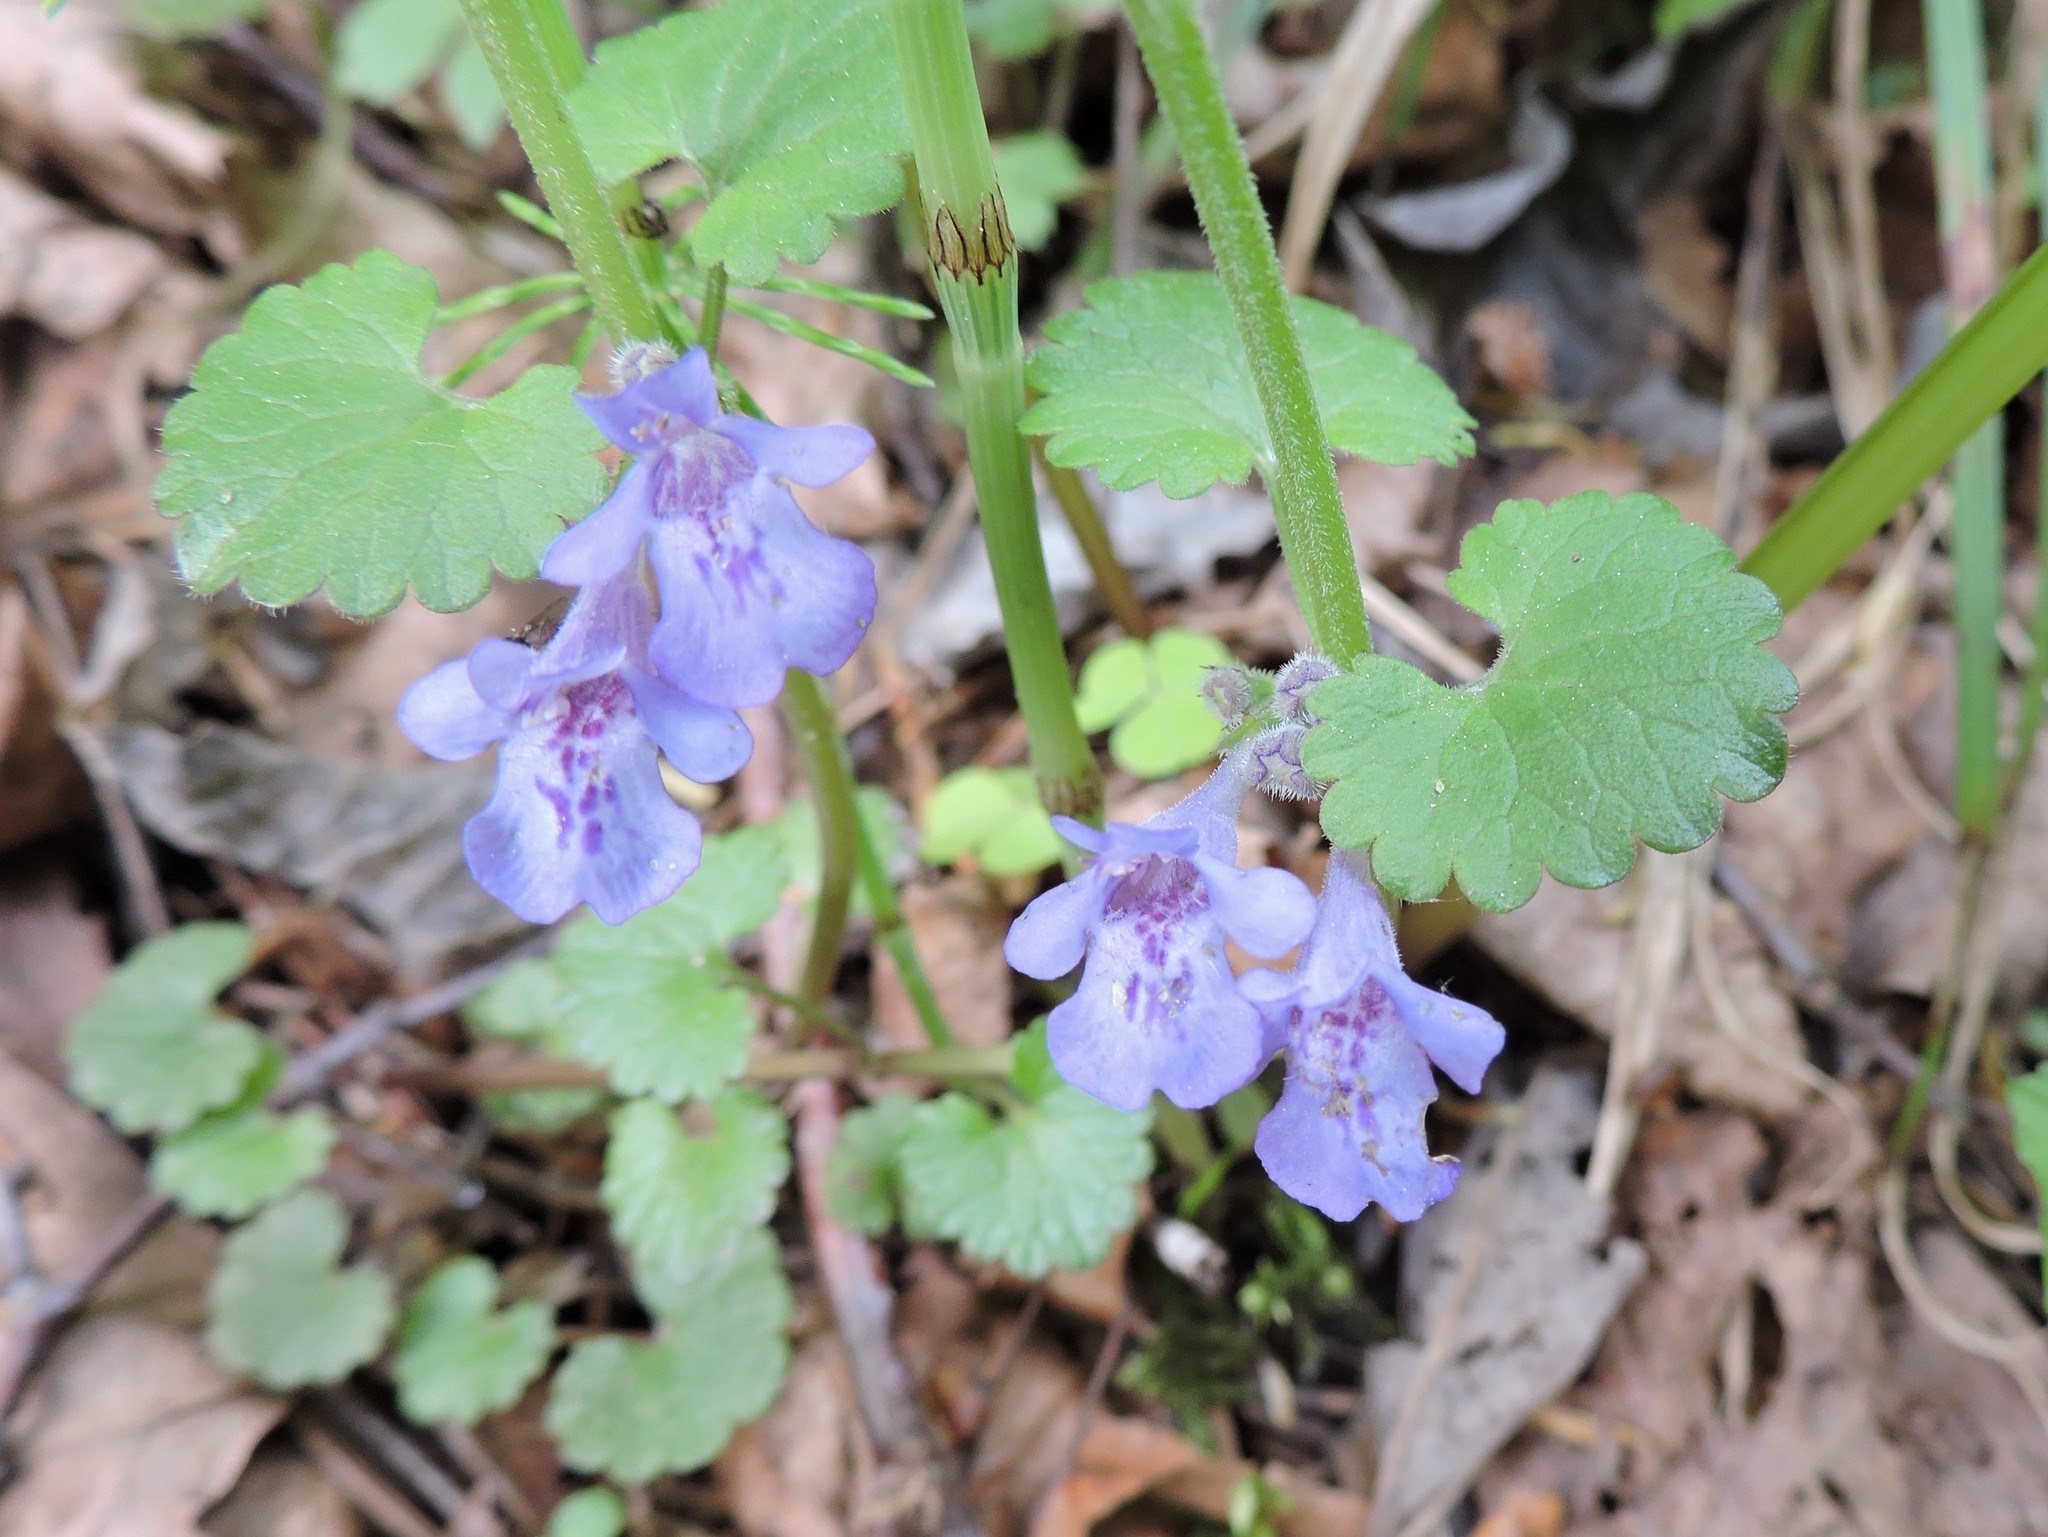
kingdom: Plantae
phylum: Tracheophyta
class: Magnoliopsida
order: Lamiales
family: Lamiaceae
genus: Glechoma
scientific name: Glechoma hederacea
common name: Ground ivy
